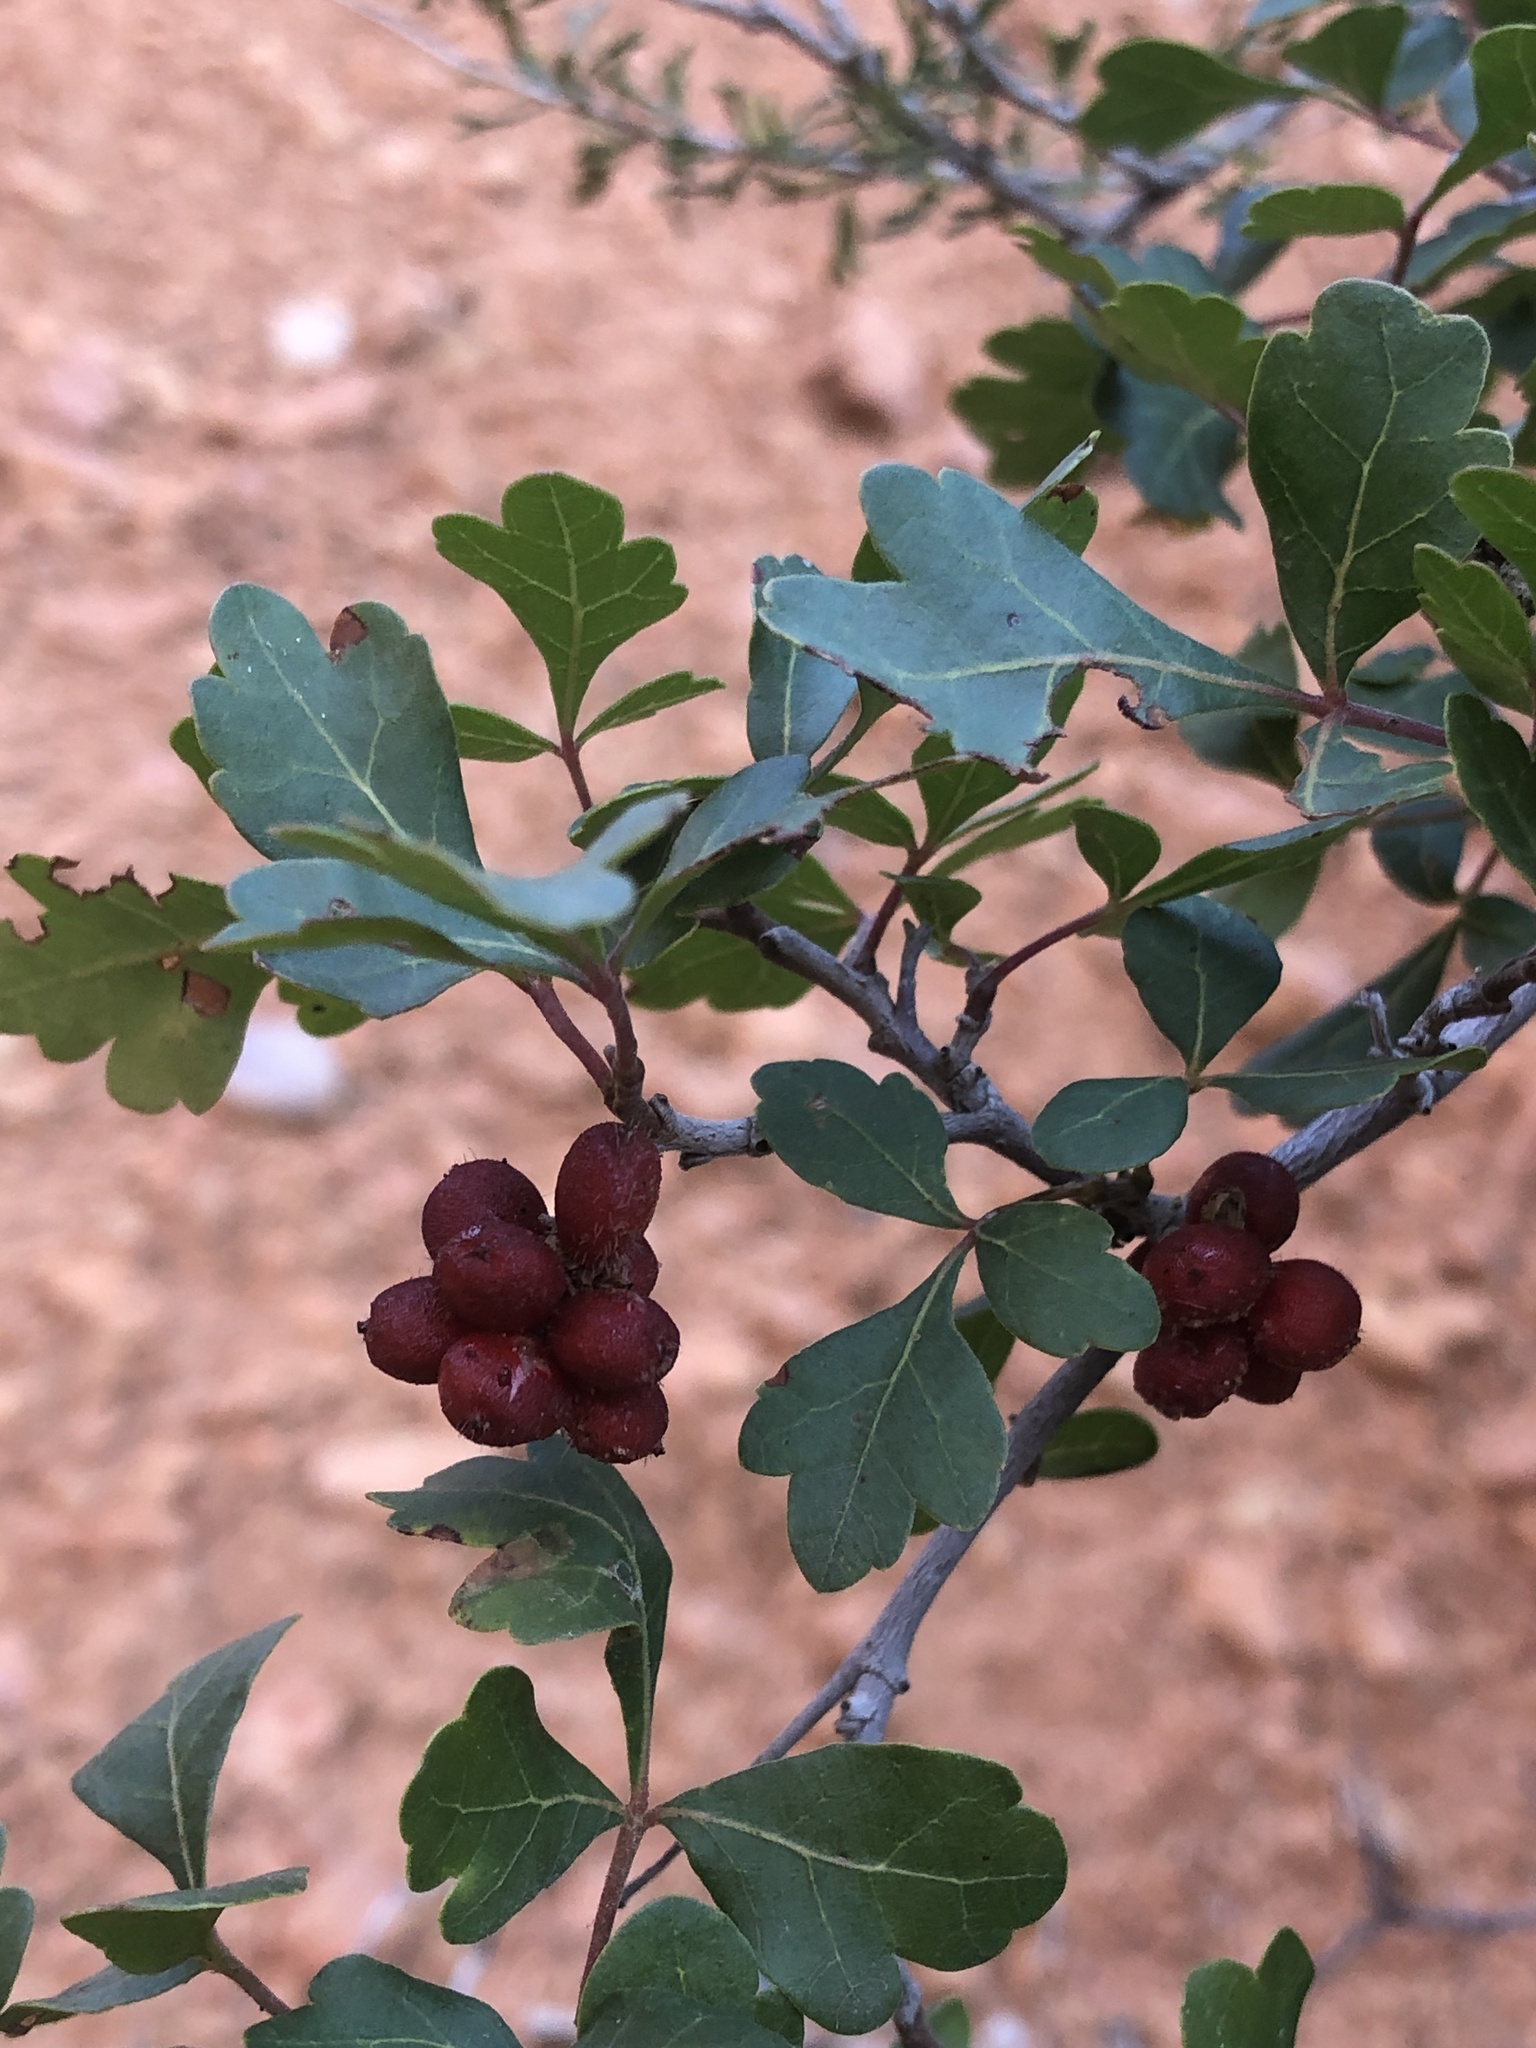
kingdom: Plantae
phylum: Tracheophyta
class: Magnoliopsida
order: Sapindales
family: Anacardiaceae
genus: Rhus
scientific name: Rhus trilobata
